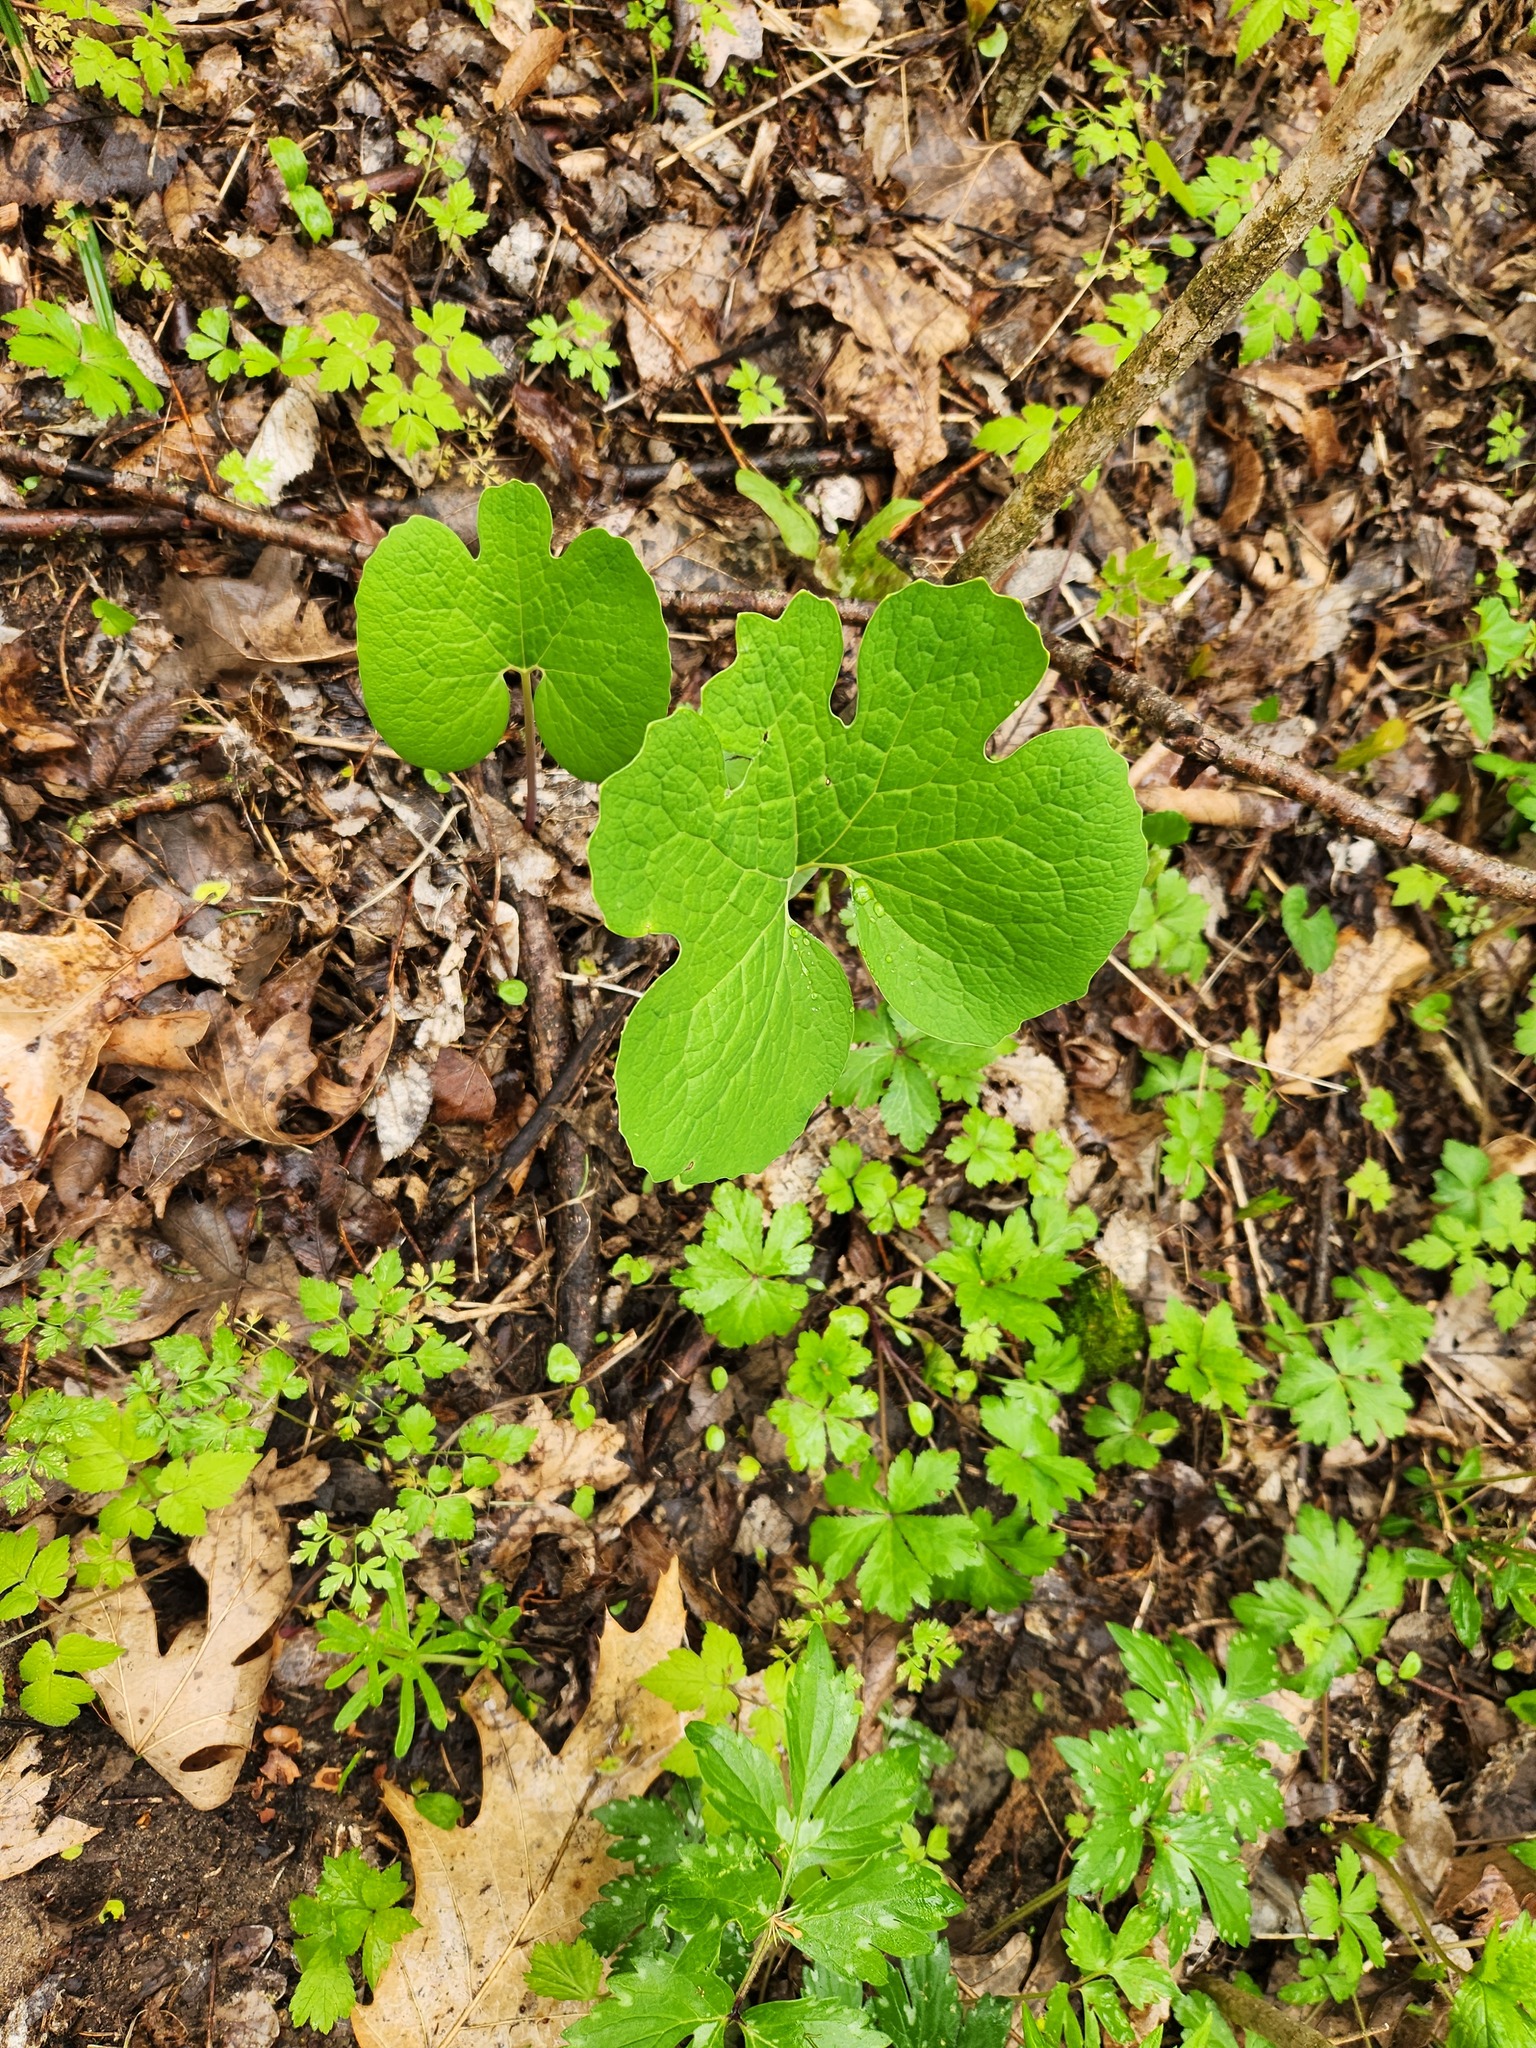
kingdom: Plantae
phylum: Tracheophyta
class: Magnoliopsida
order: Ranunculales
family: Papaveraceae
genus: Sanguinaria
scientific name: Sanguinaria canadensis
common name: Bloodroot
